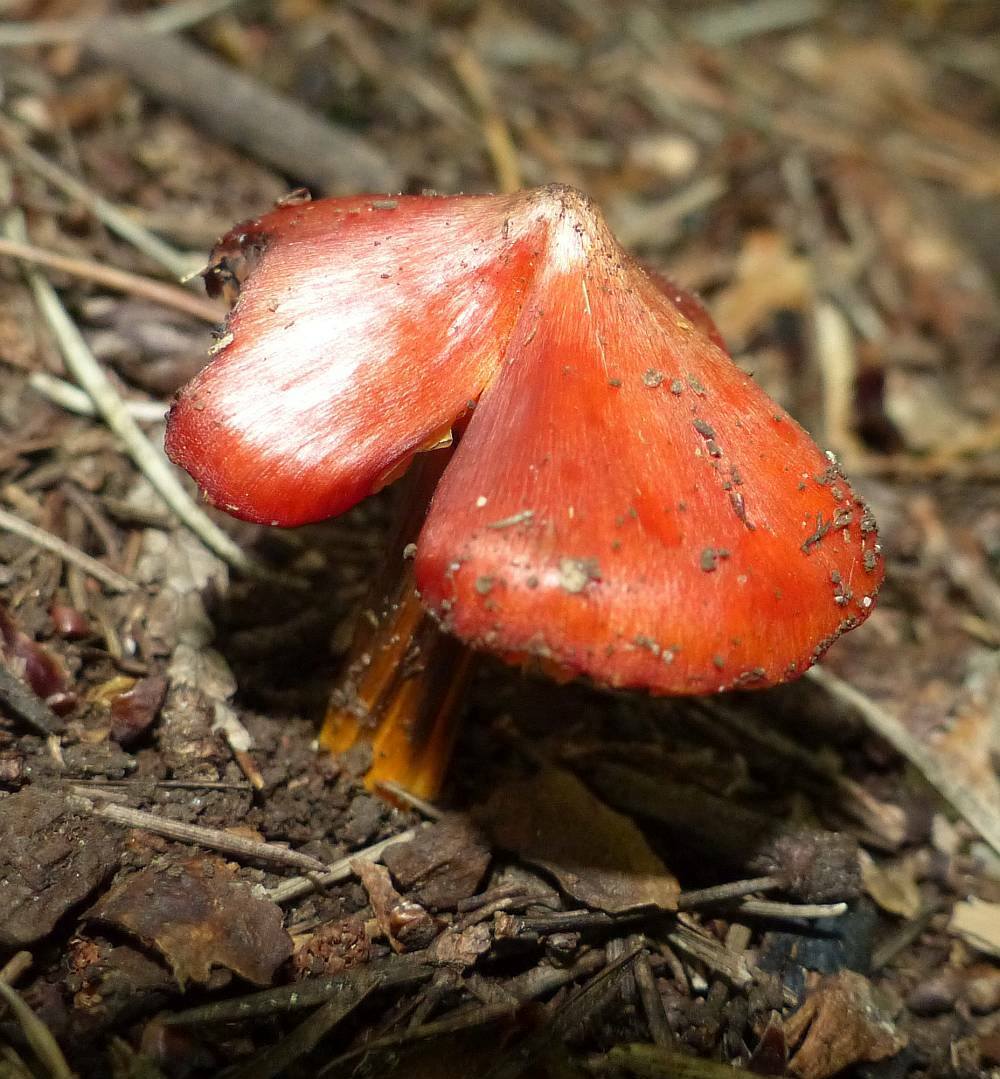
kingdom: Fungi
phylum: Basidiomycota
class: Agaricomycetes
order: Agaricales
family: Hygrophoraceae
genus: Hygrocybe
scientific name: Hygrocybe cuspidata
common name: Candy apple waxy cap
